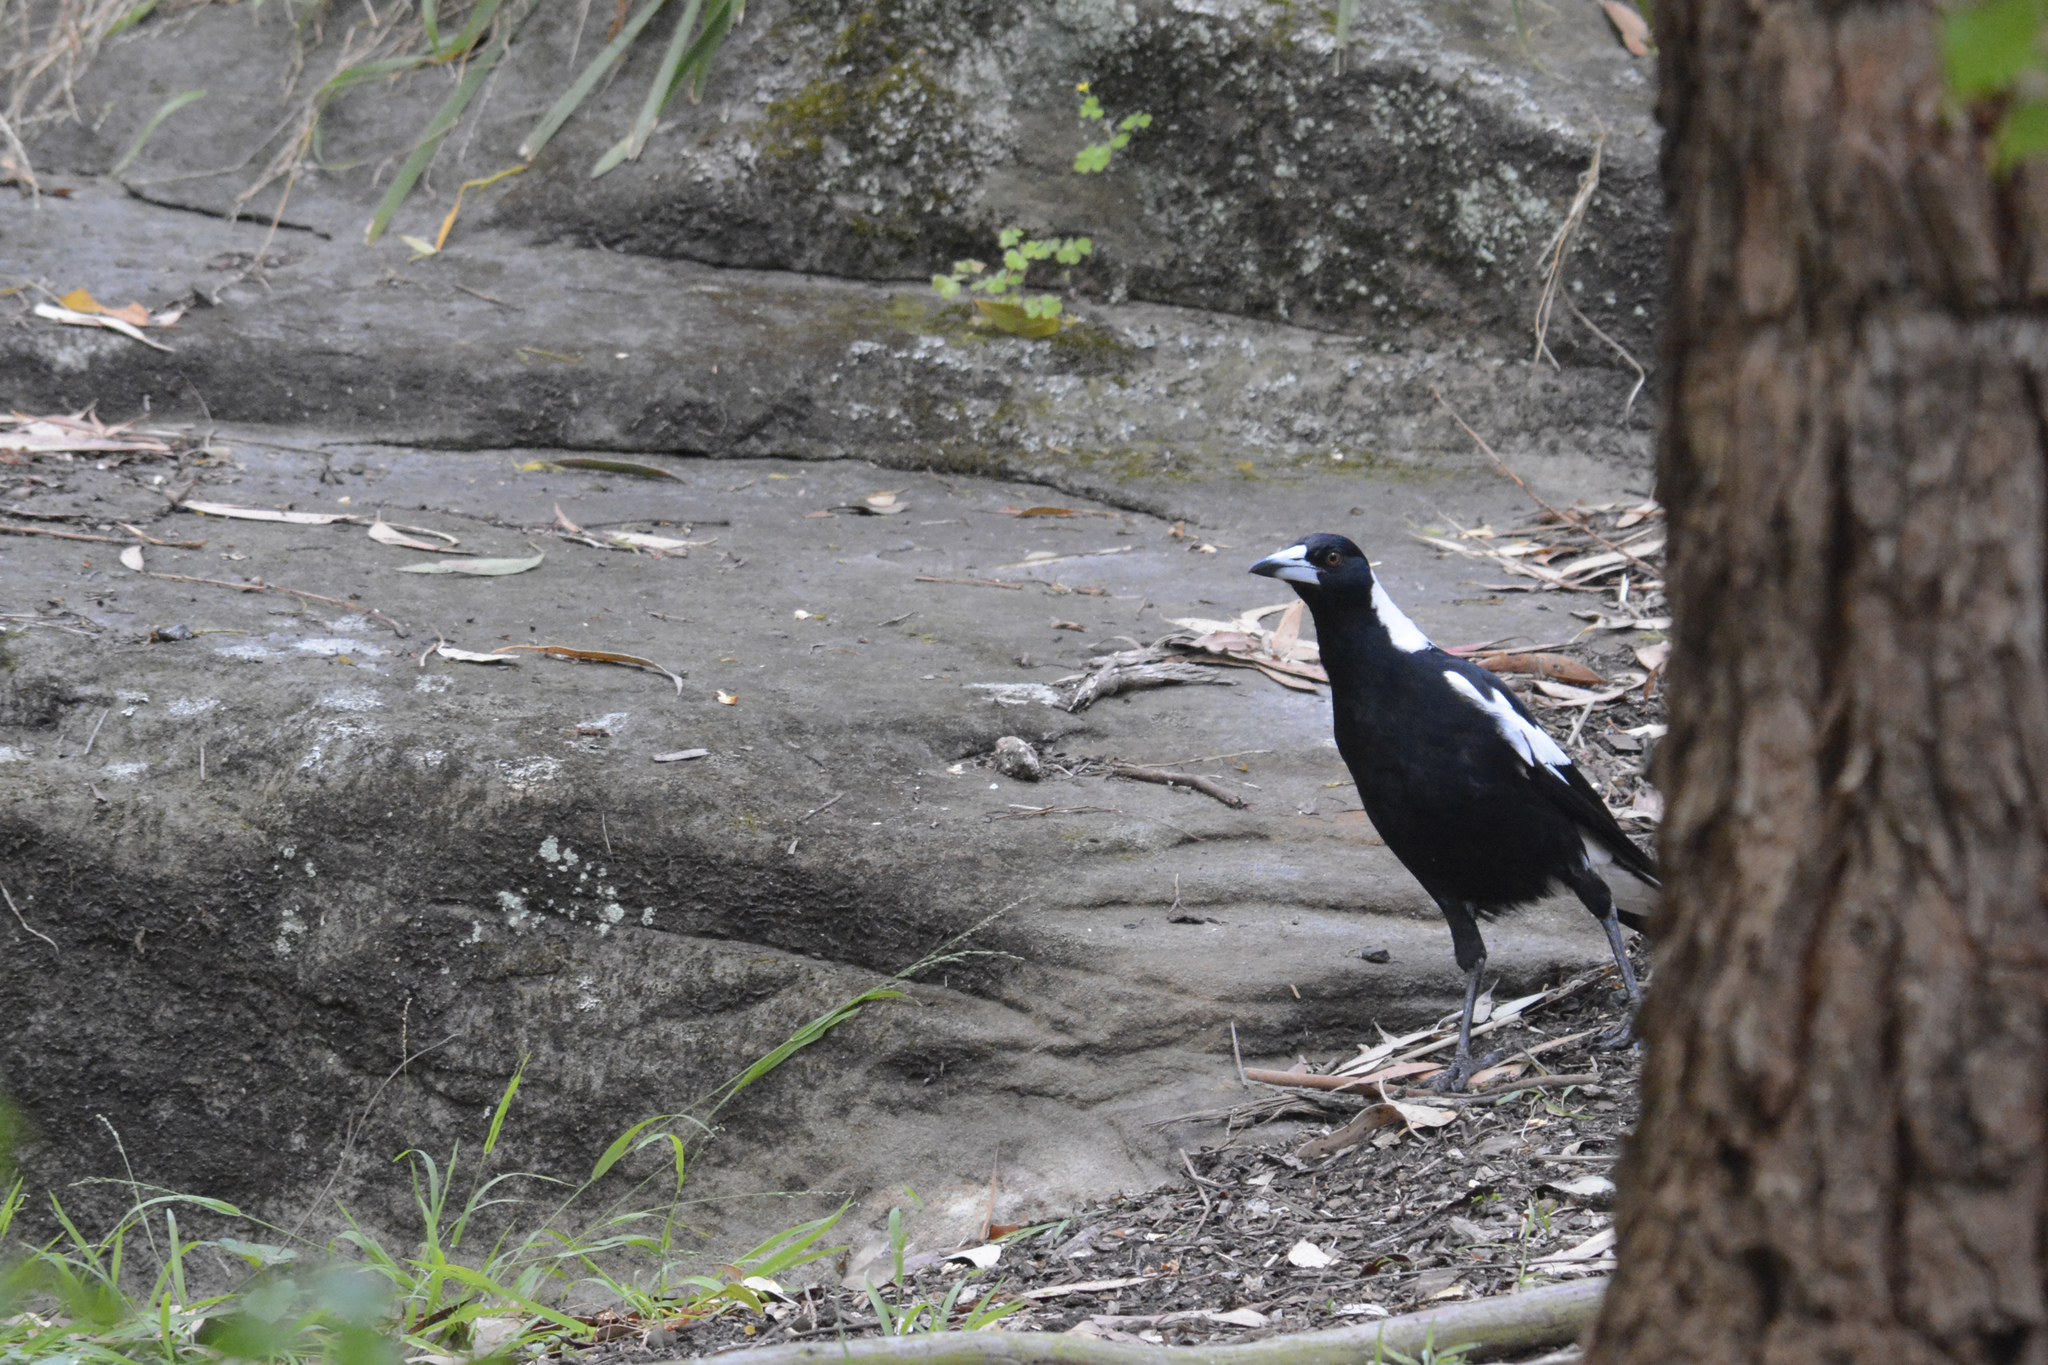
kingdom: Animalia
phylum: Chordata
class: Aves
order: Passeriformes
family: Cracticidae
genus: Gymnorhina
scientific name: Gymnorhina tibicen
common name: Australian magpie
